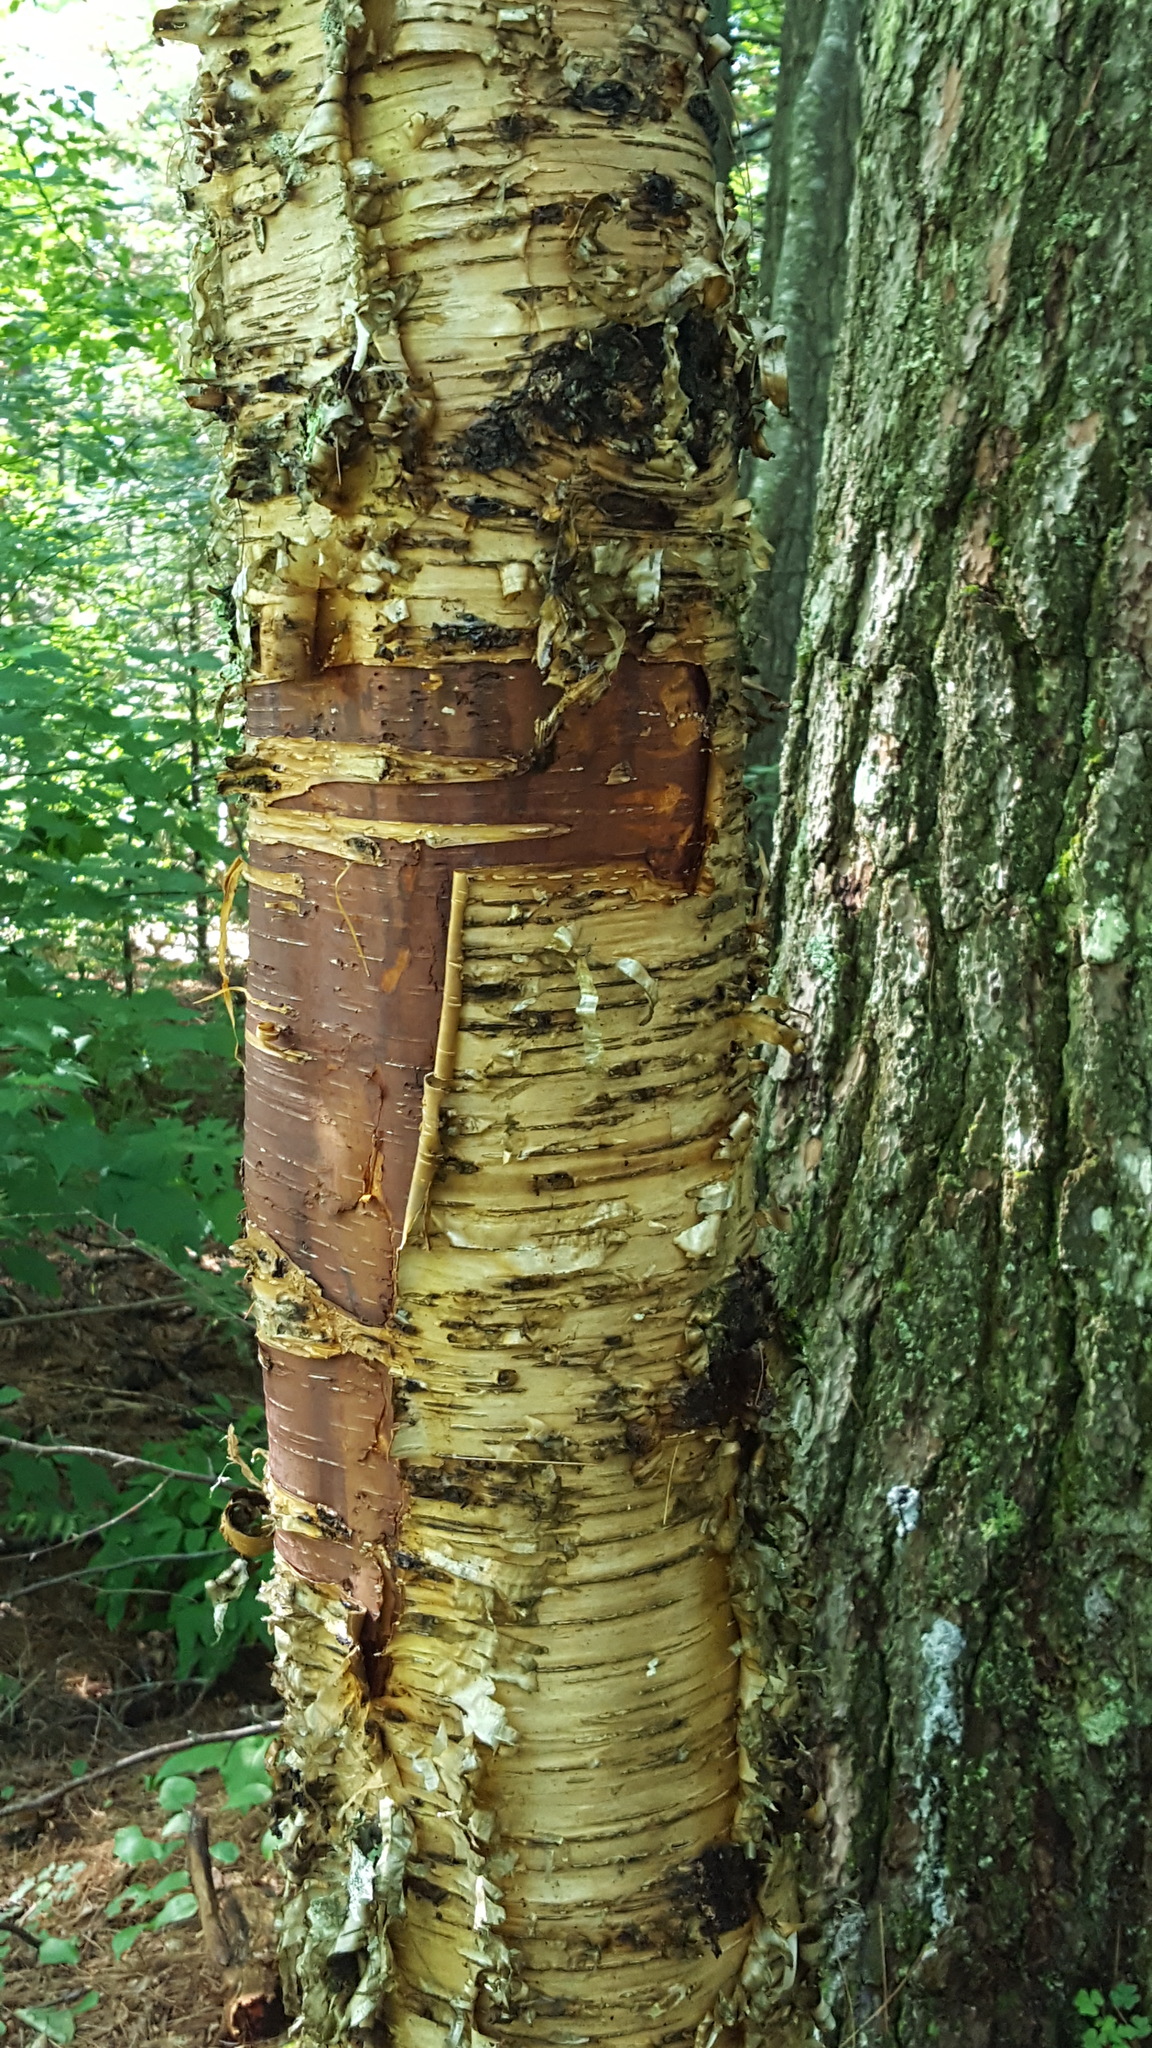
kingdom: Plantae
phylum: Tracheophyta
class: Magnoliopsida
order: Fagales
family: Betulaceae
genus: Betula
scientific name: Betula alleghaniensis
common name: Yellow birch
